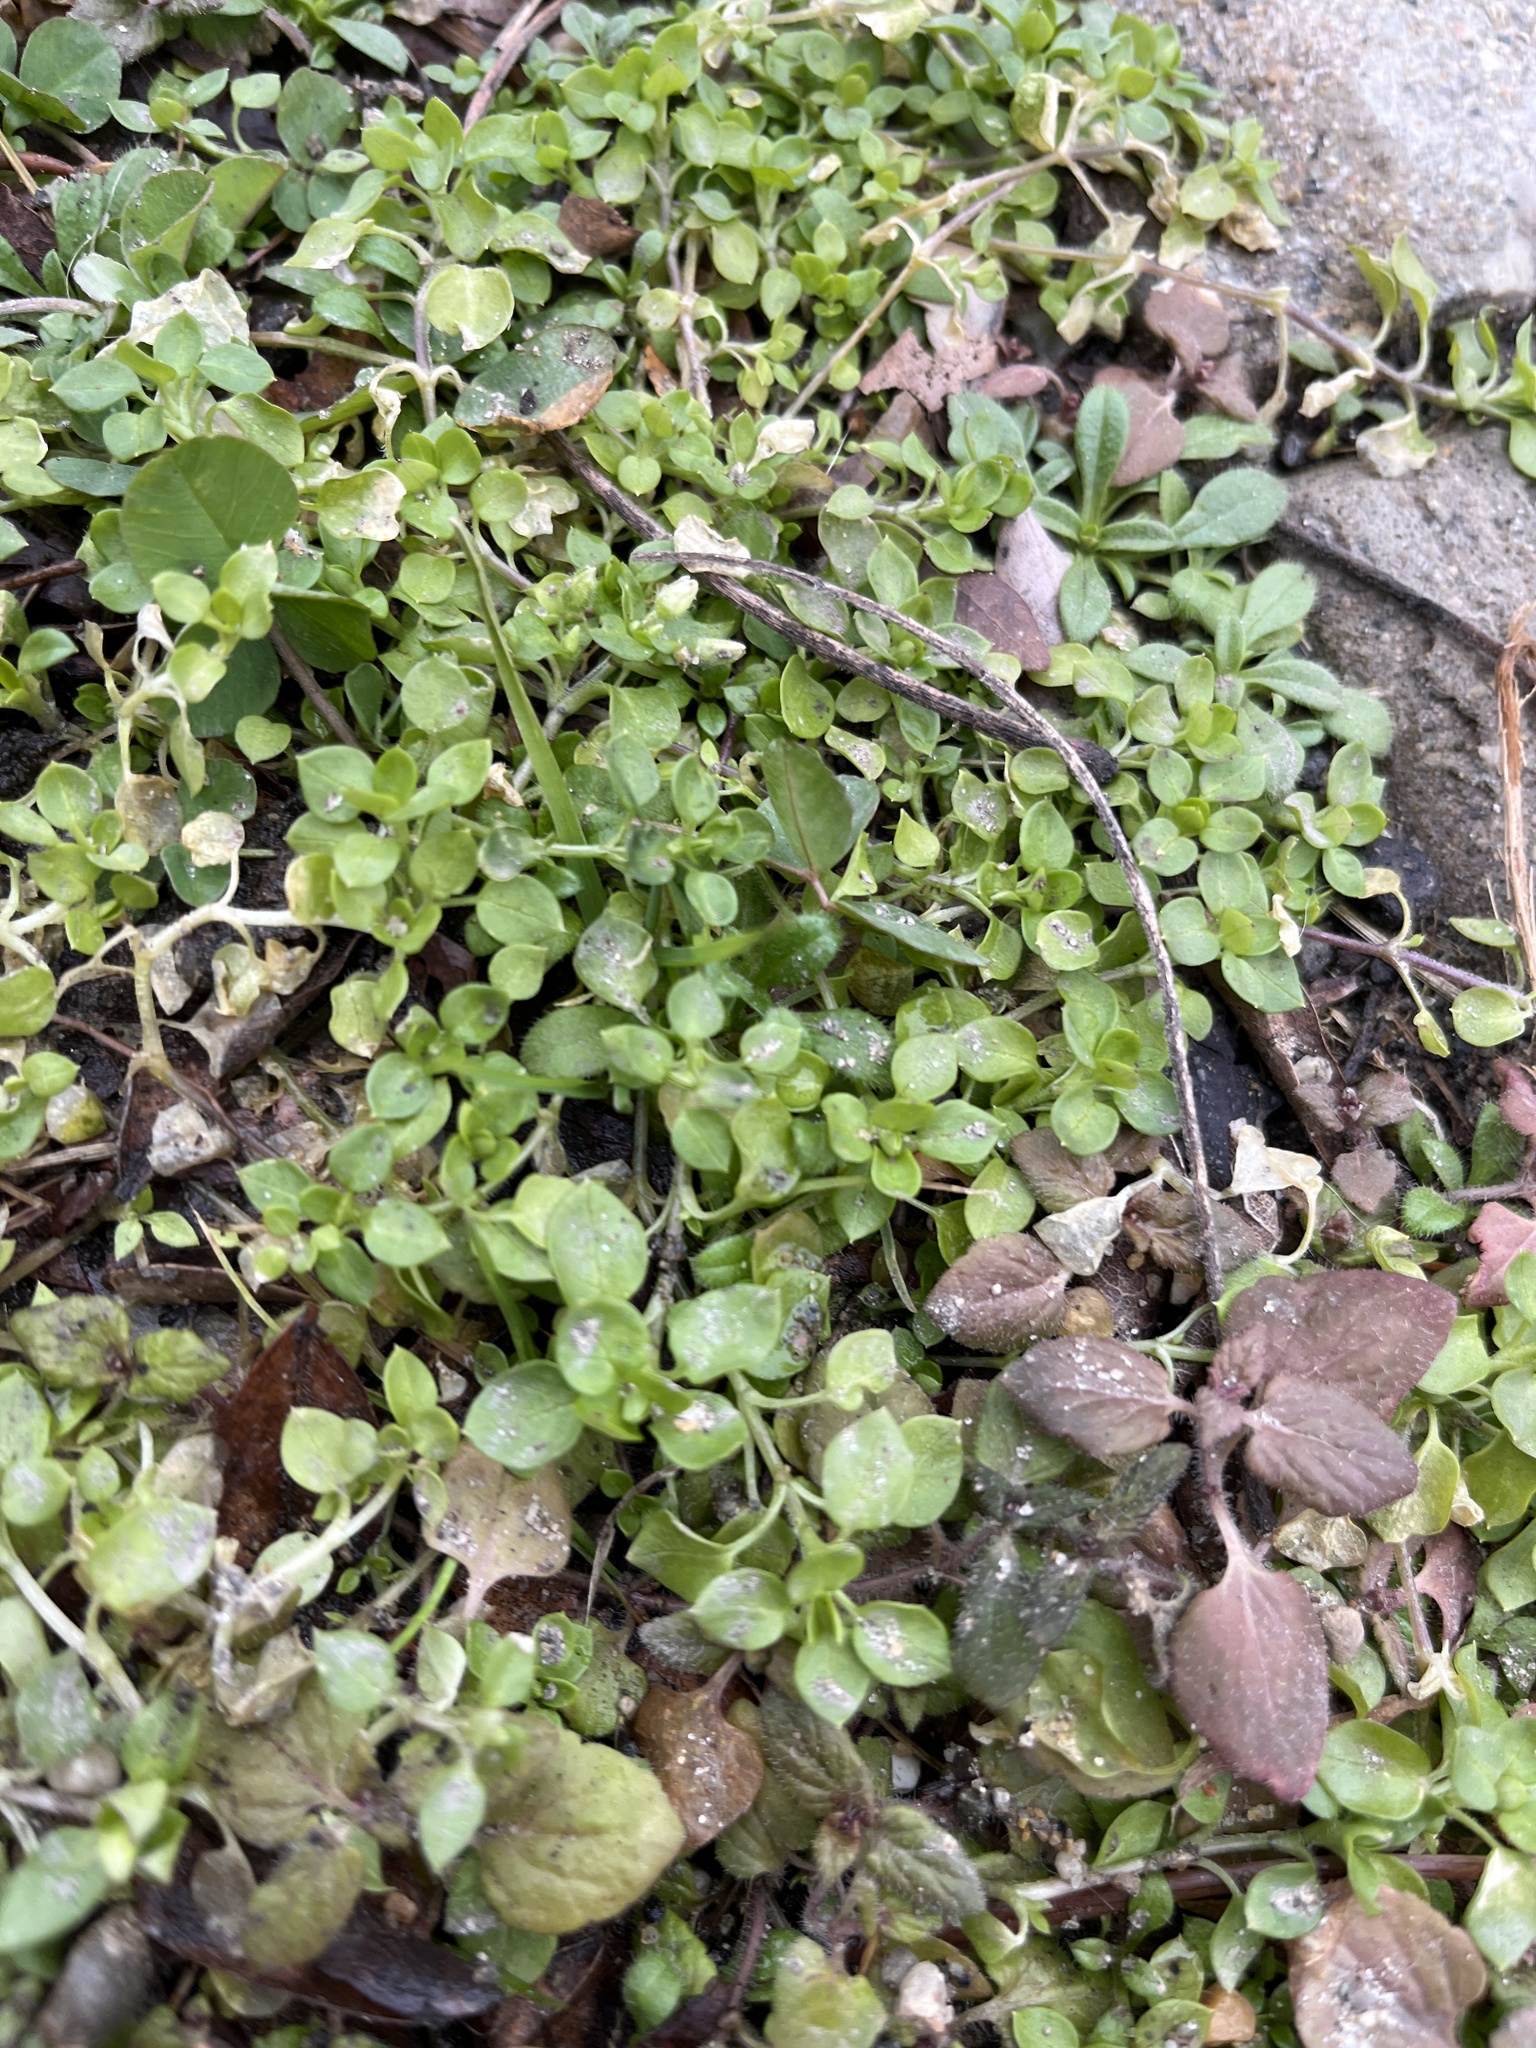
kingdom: Plantae
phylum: Tracheophyta
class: Magnoliopsida
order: Caryophyllales
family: Caryophyllaceae
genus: Stellaria
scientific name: Stellaria media
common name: Common chickweed
